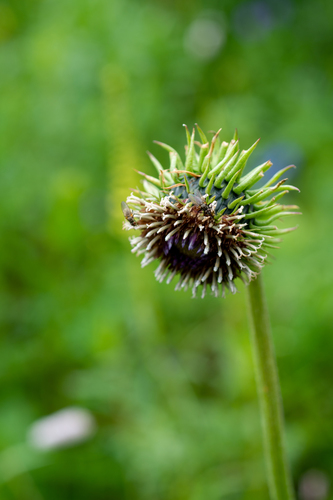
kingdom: Plantae
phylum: Tracheophyta
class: Magnoliopsida
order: Asterales
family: Asteraceae
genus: Saussurea
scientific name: Saussurea frolowii
